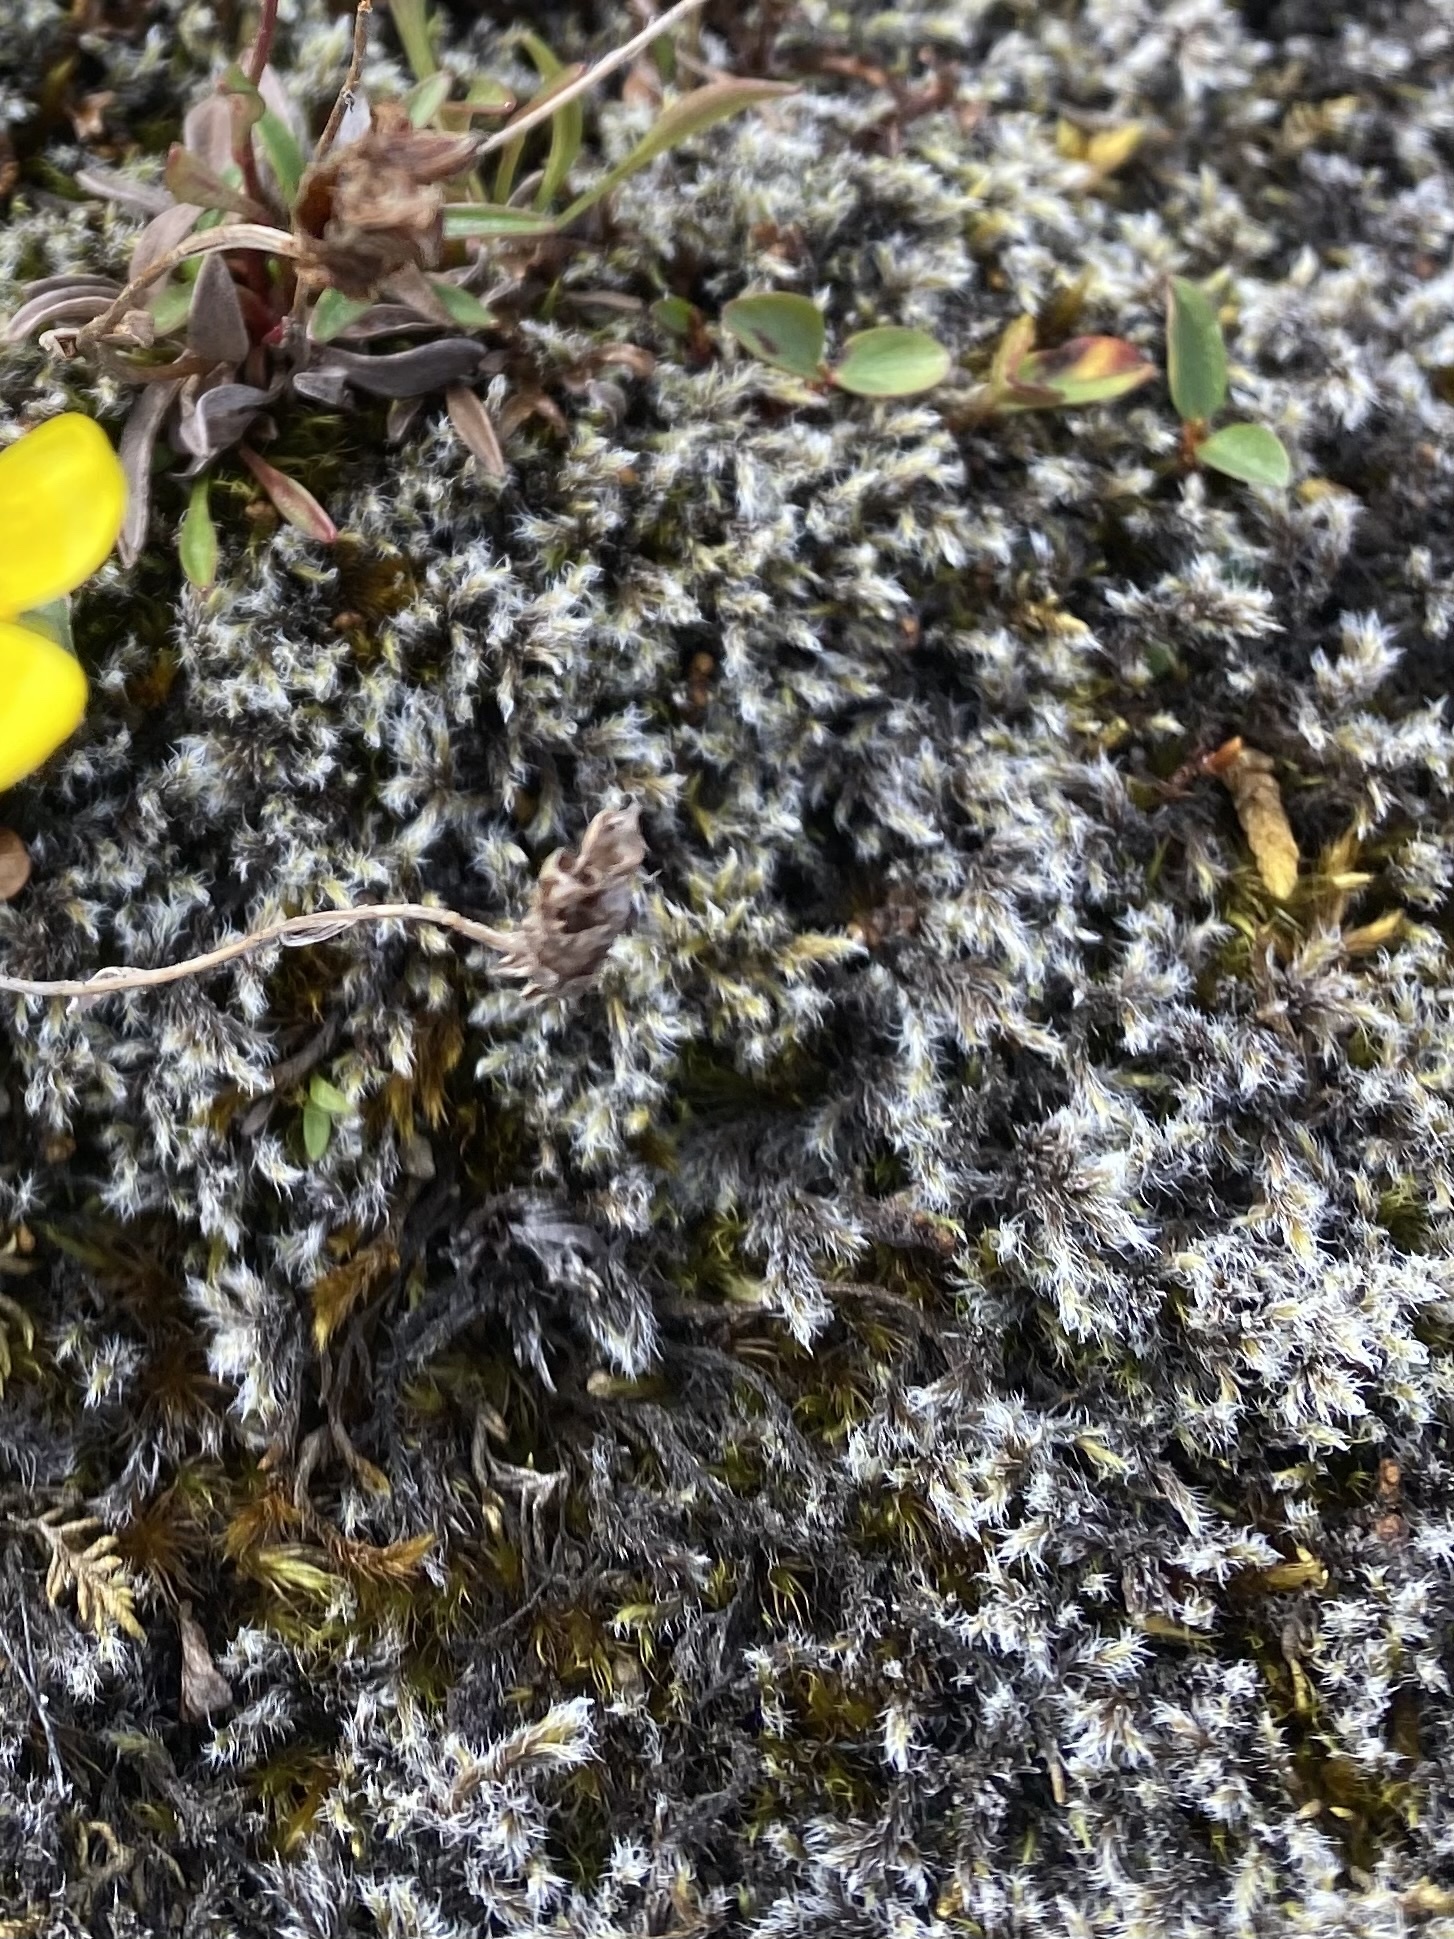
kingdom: Plantae
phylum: Bryophyta
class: Bryopsida
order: Grimmiales
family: Grimmiaceae
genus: Racomitrium
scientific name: Racomitrium lanuginosum
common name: Hoary rock moss
